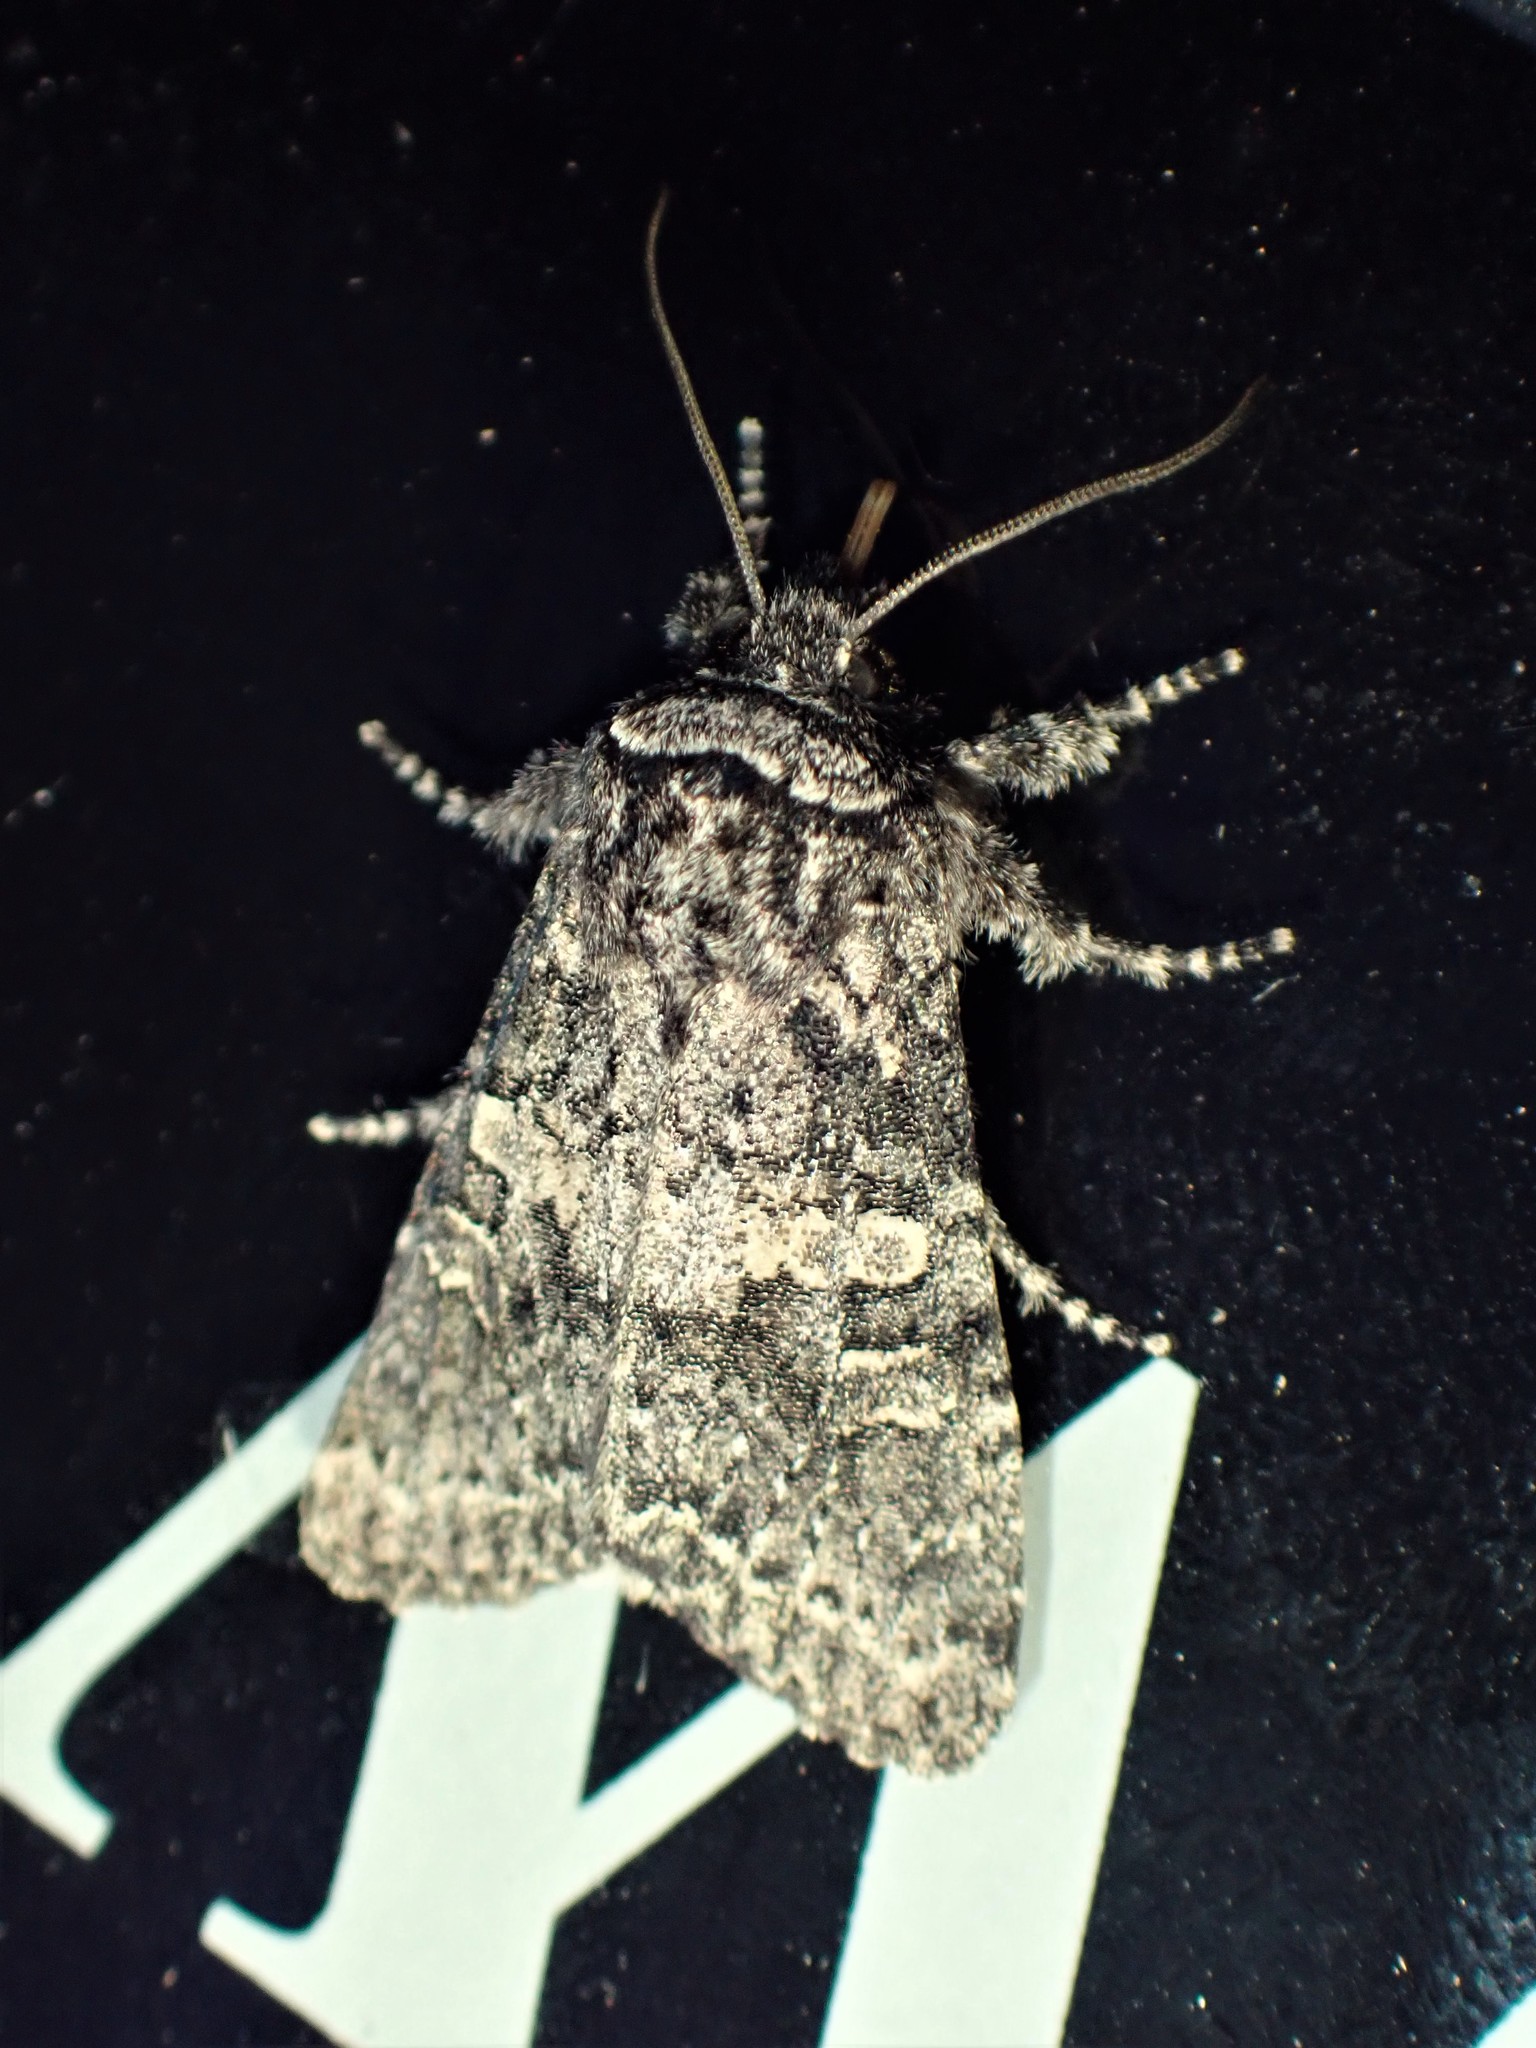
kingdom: Animalia
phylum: Arthropoda
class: Insecta
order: Lepidoptera
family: Noctuidae
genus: Egira
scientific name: Egira dolosa
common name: Lined black aspen cat.
